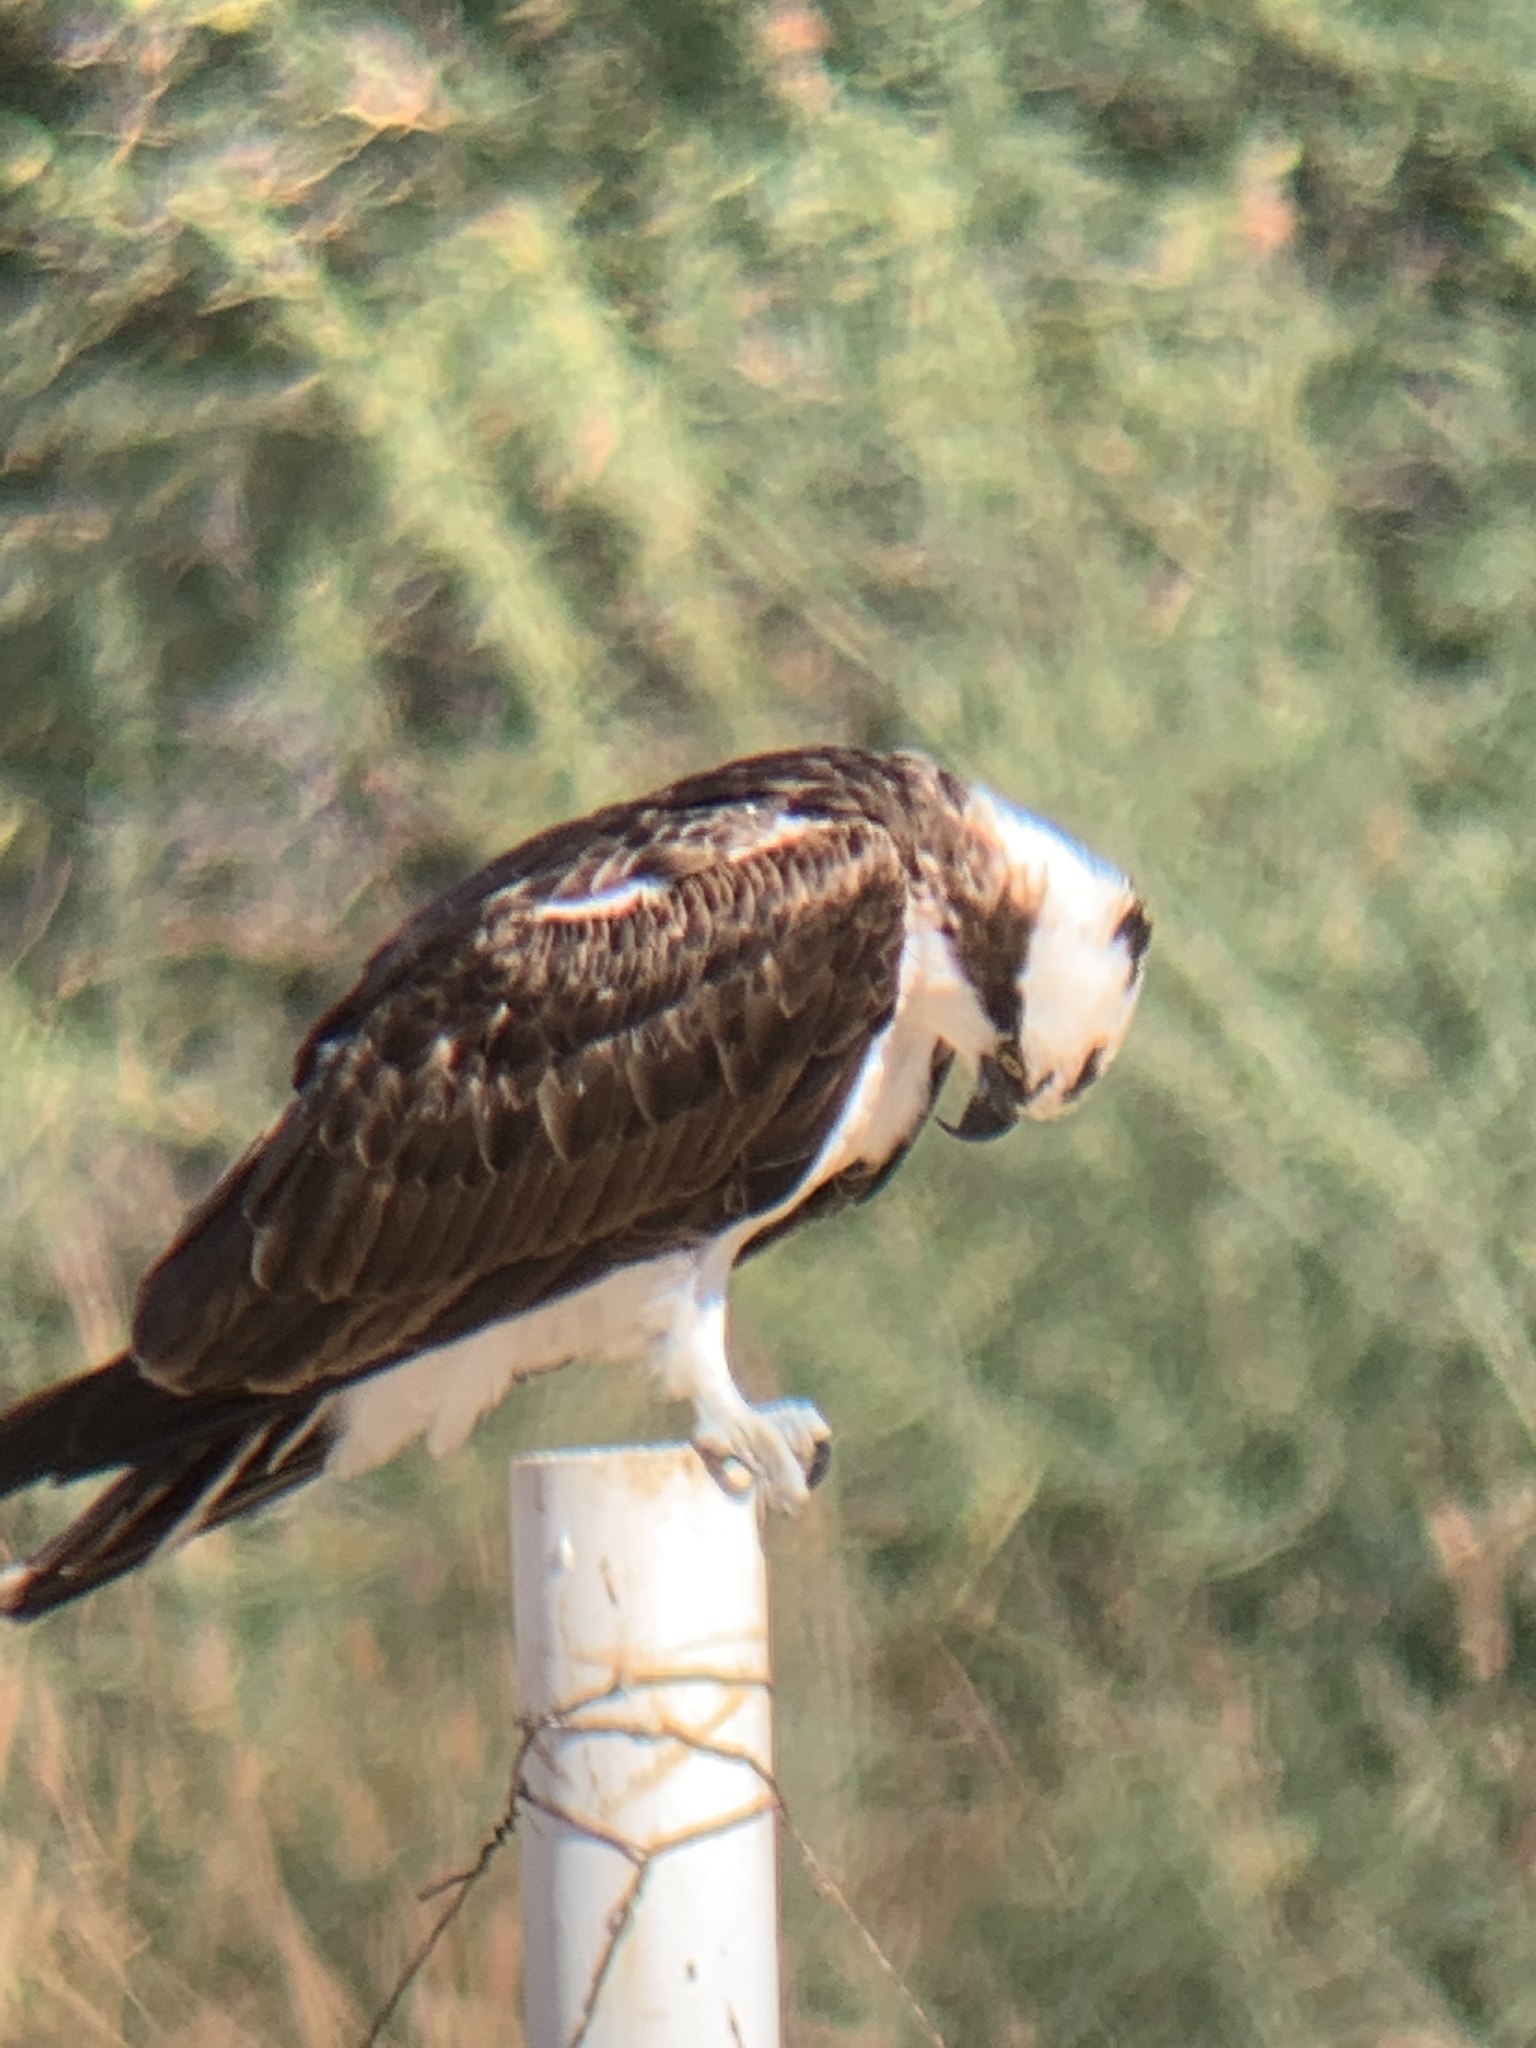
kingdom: Animalia
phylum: Chordata
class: Aves
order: Accipitriformes
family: Pandionidae
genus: Pandion
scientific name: Pandion haliaetus
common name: Osprey
